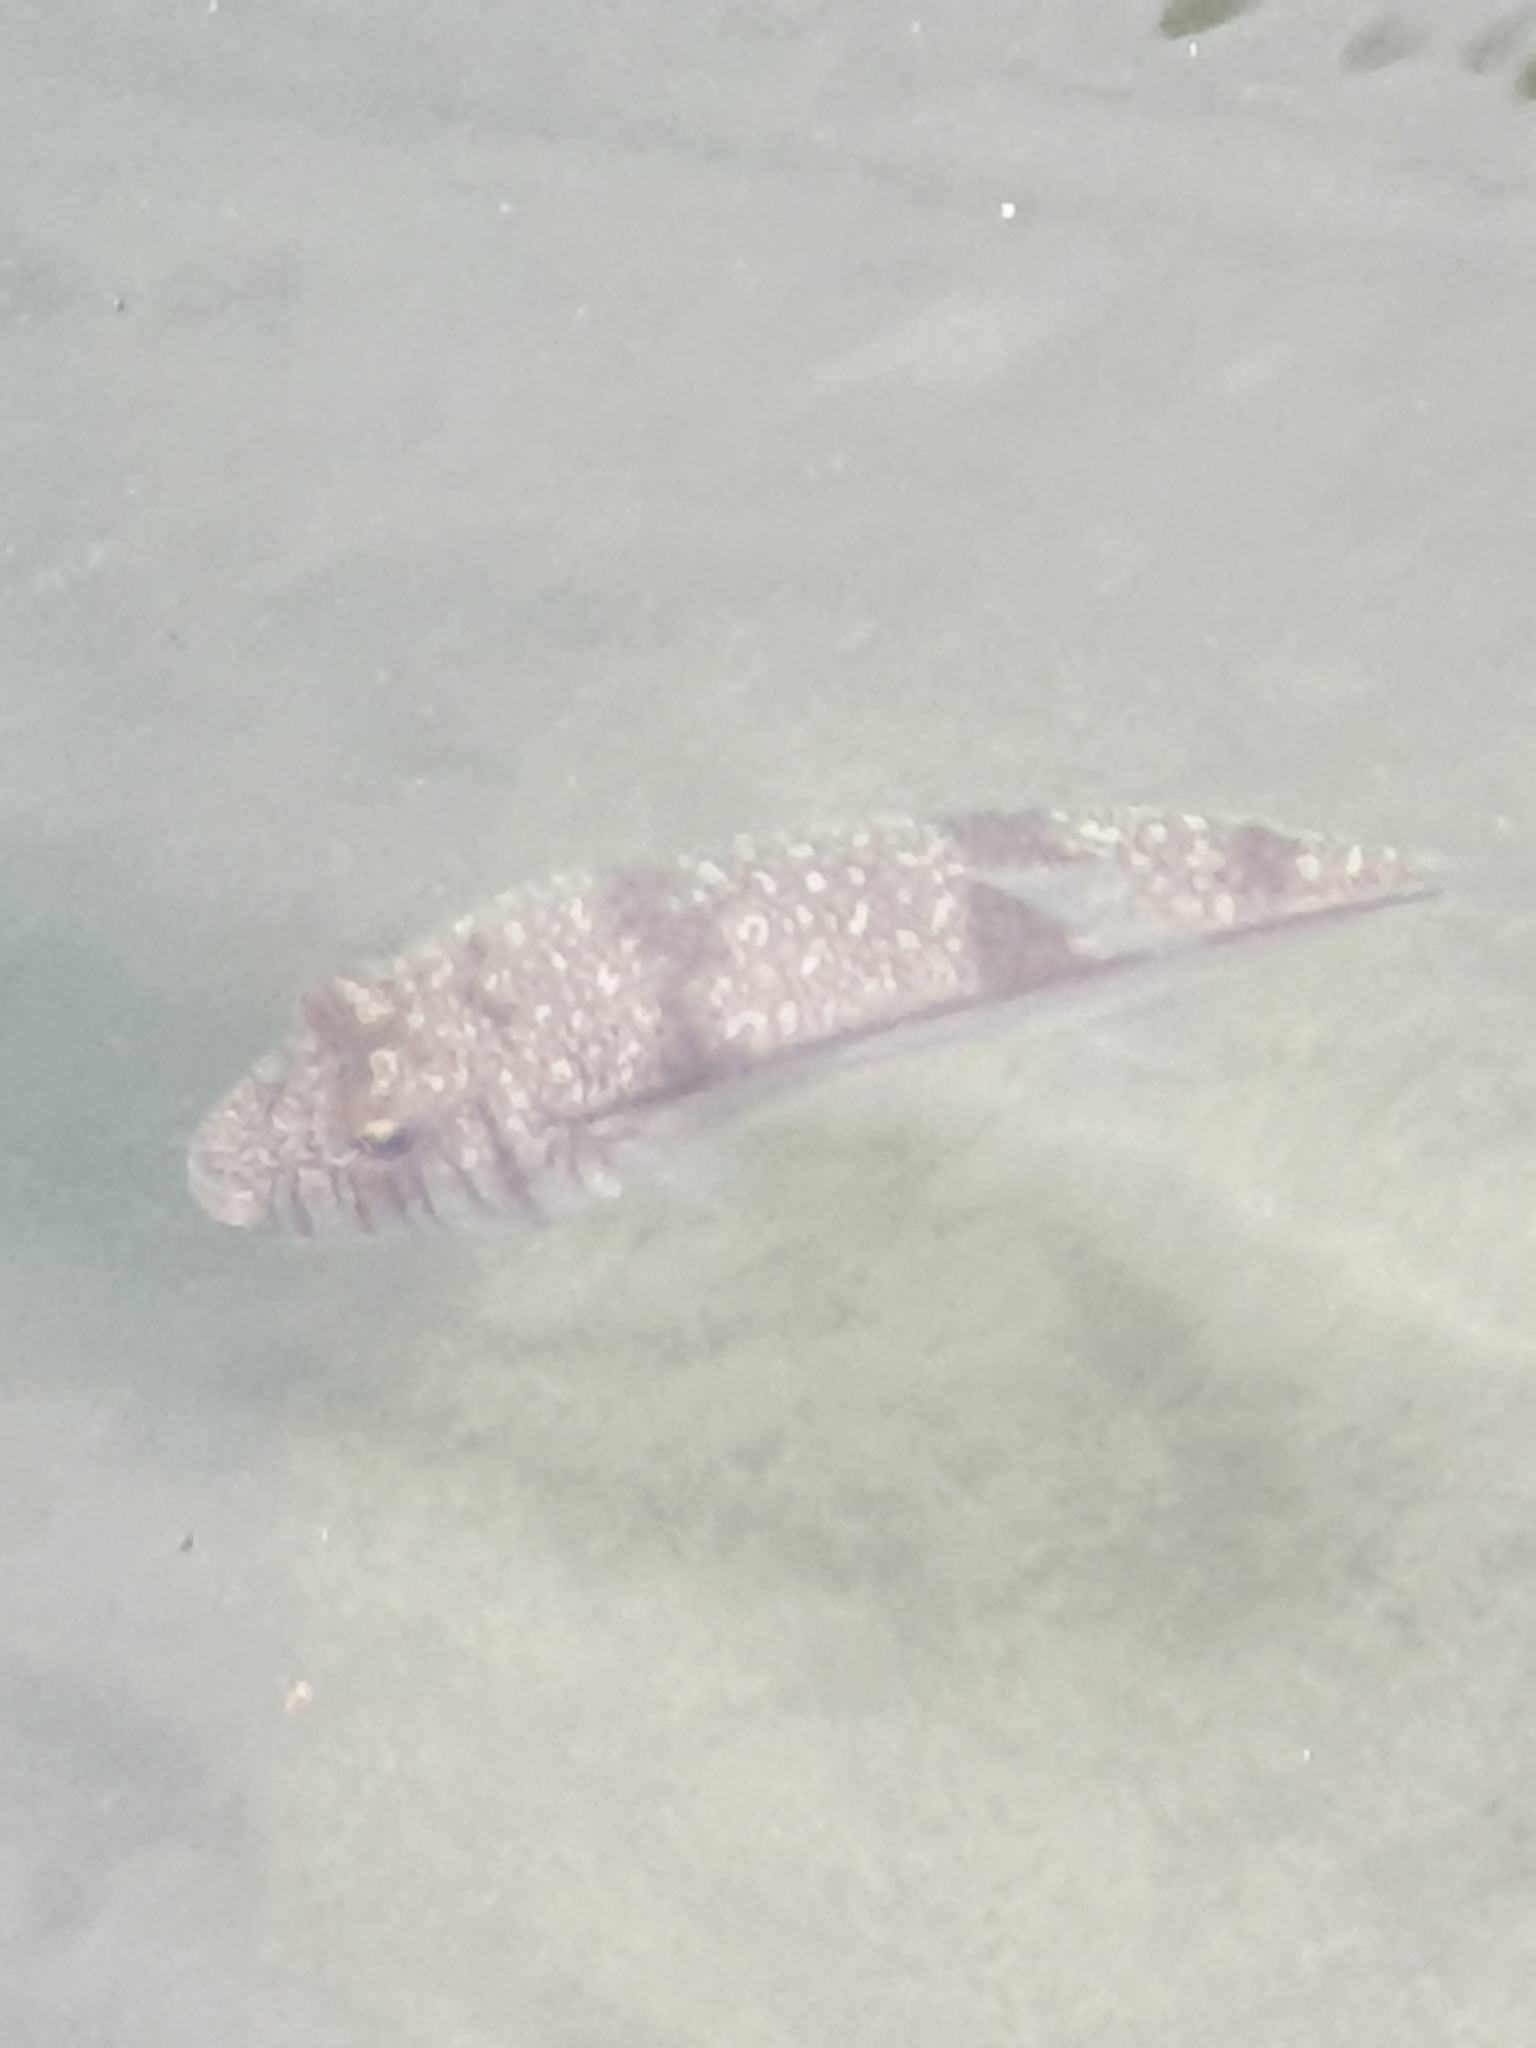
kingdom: Animalia
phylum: Chordata
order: Tetraodontiformes
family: Tetraodontidae
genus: Torquigener
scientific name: Torquigener pleurogramma
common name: Banded toadfish
